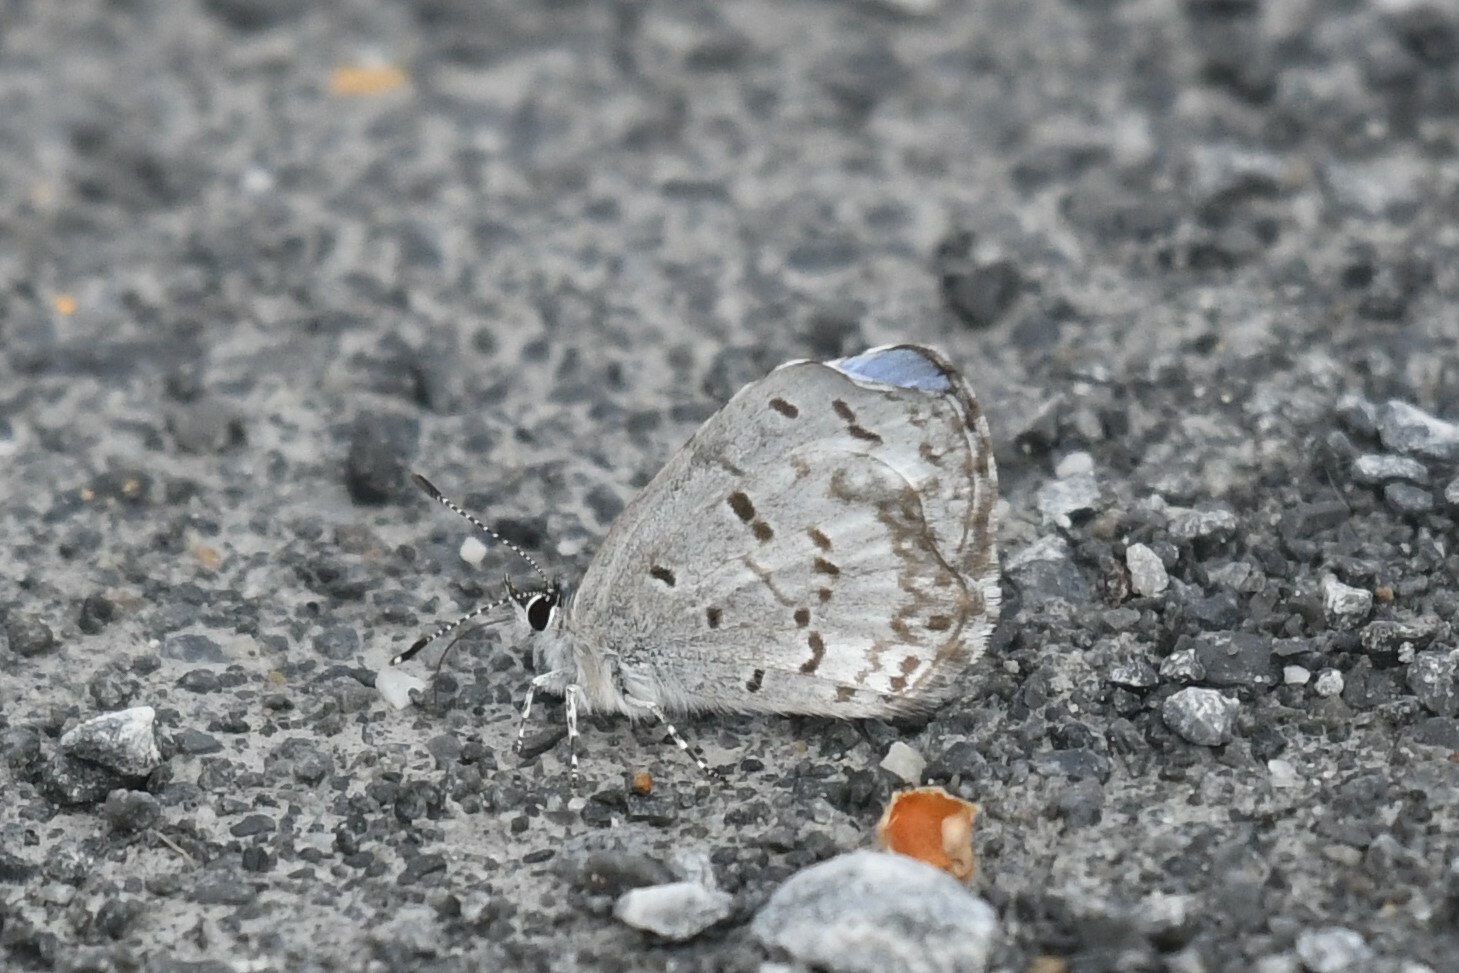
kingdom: Animalia
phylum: Arthropoda
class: Insecta
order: Lepidoptera
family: Lycaenidae
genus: Celastrina
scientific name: Celastrina lucia
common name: Lucia azure
